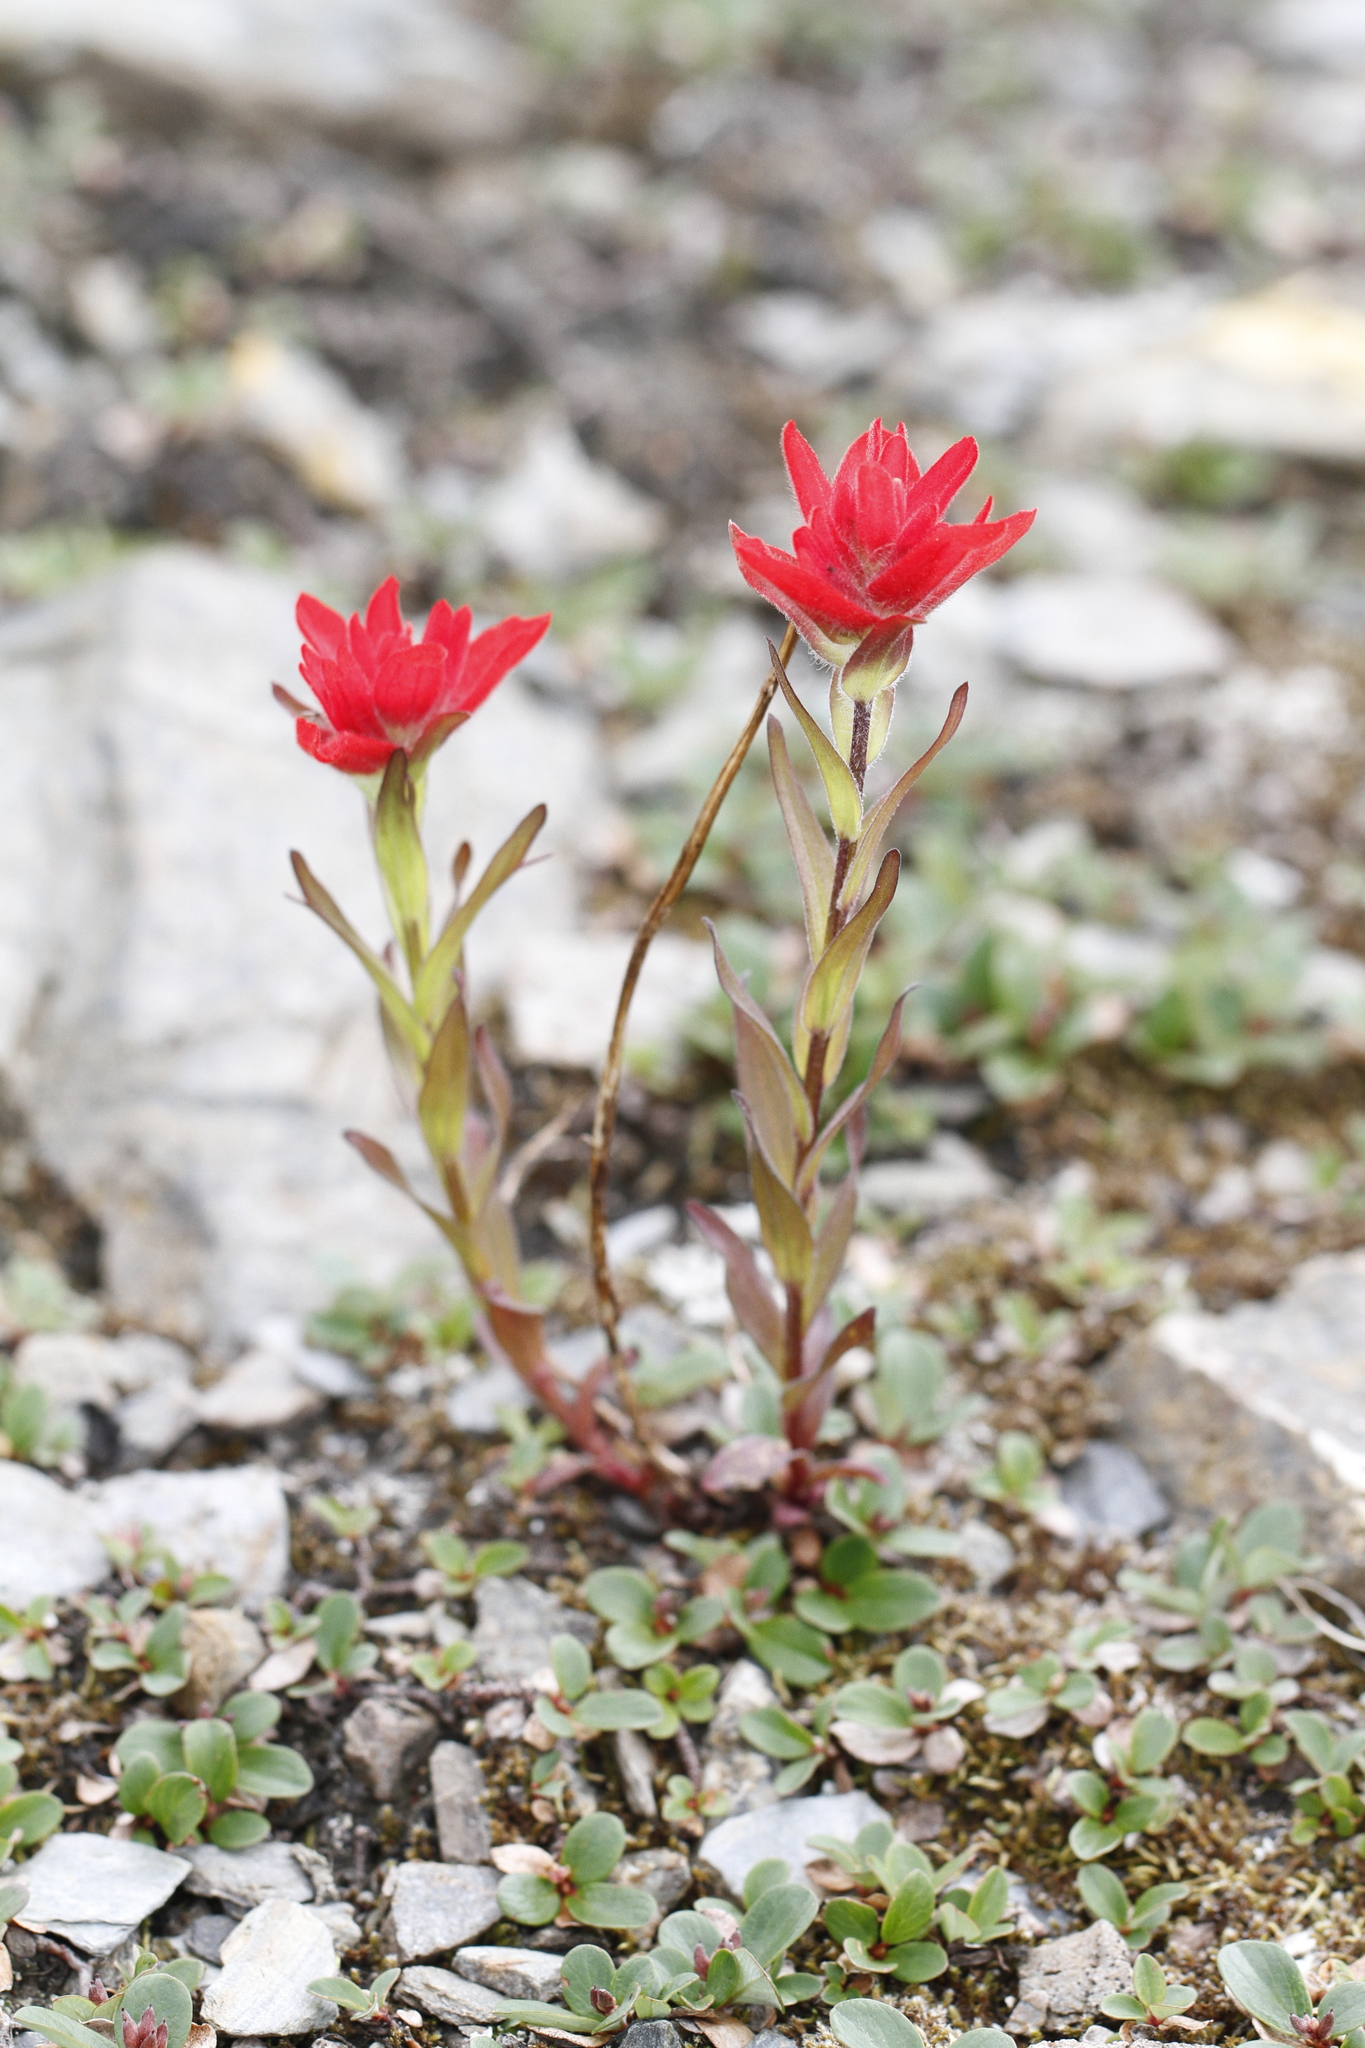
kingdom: Plantae
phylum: Tracheophyta
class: Magnoliopsida
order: Lamiales
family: Orobanchaceae
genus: Castilleja
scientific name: Castilleja rhexifolia
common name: Rocky mountain paintbrush
